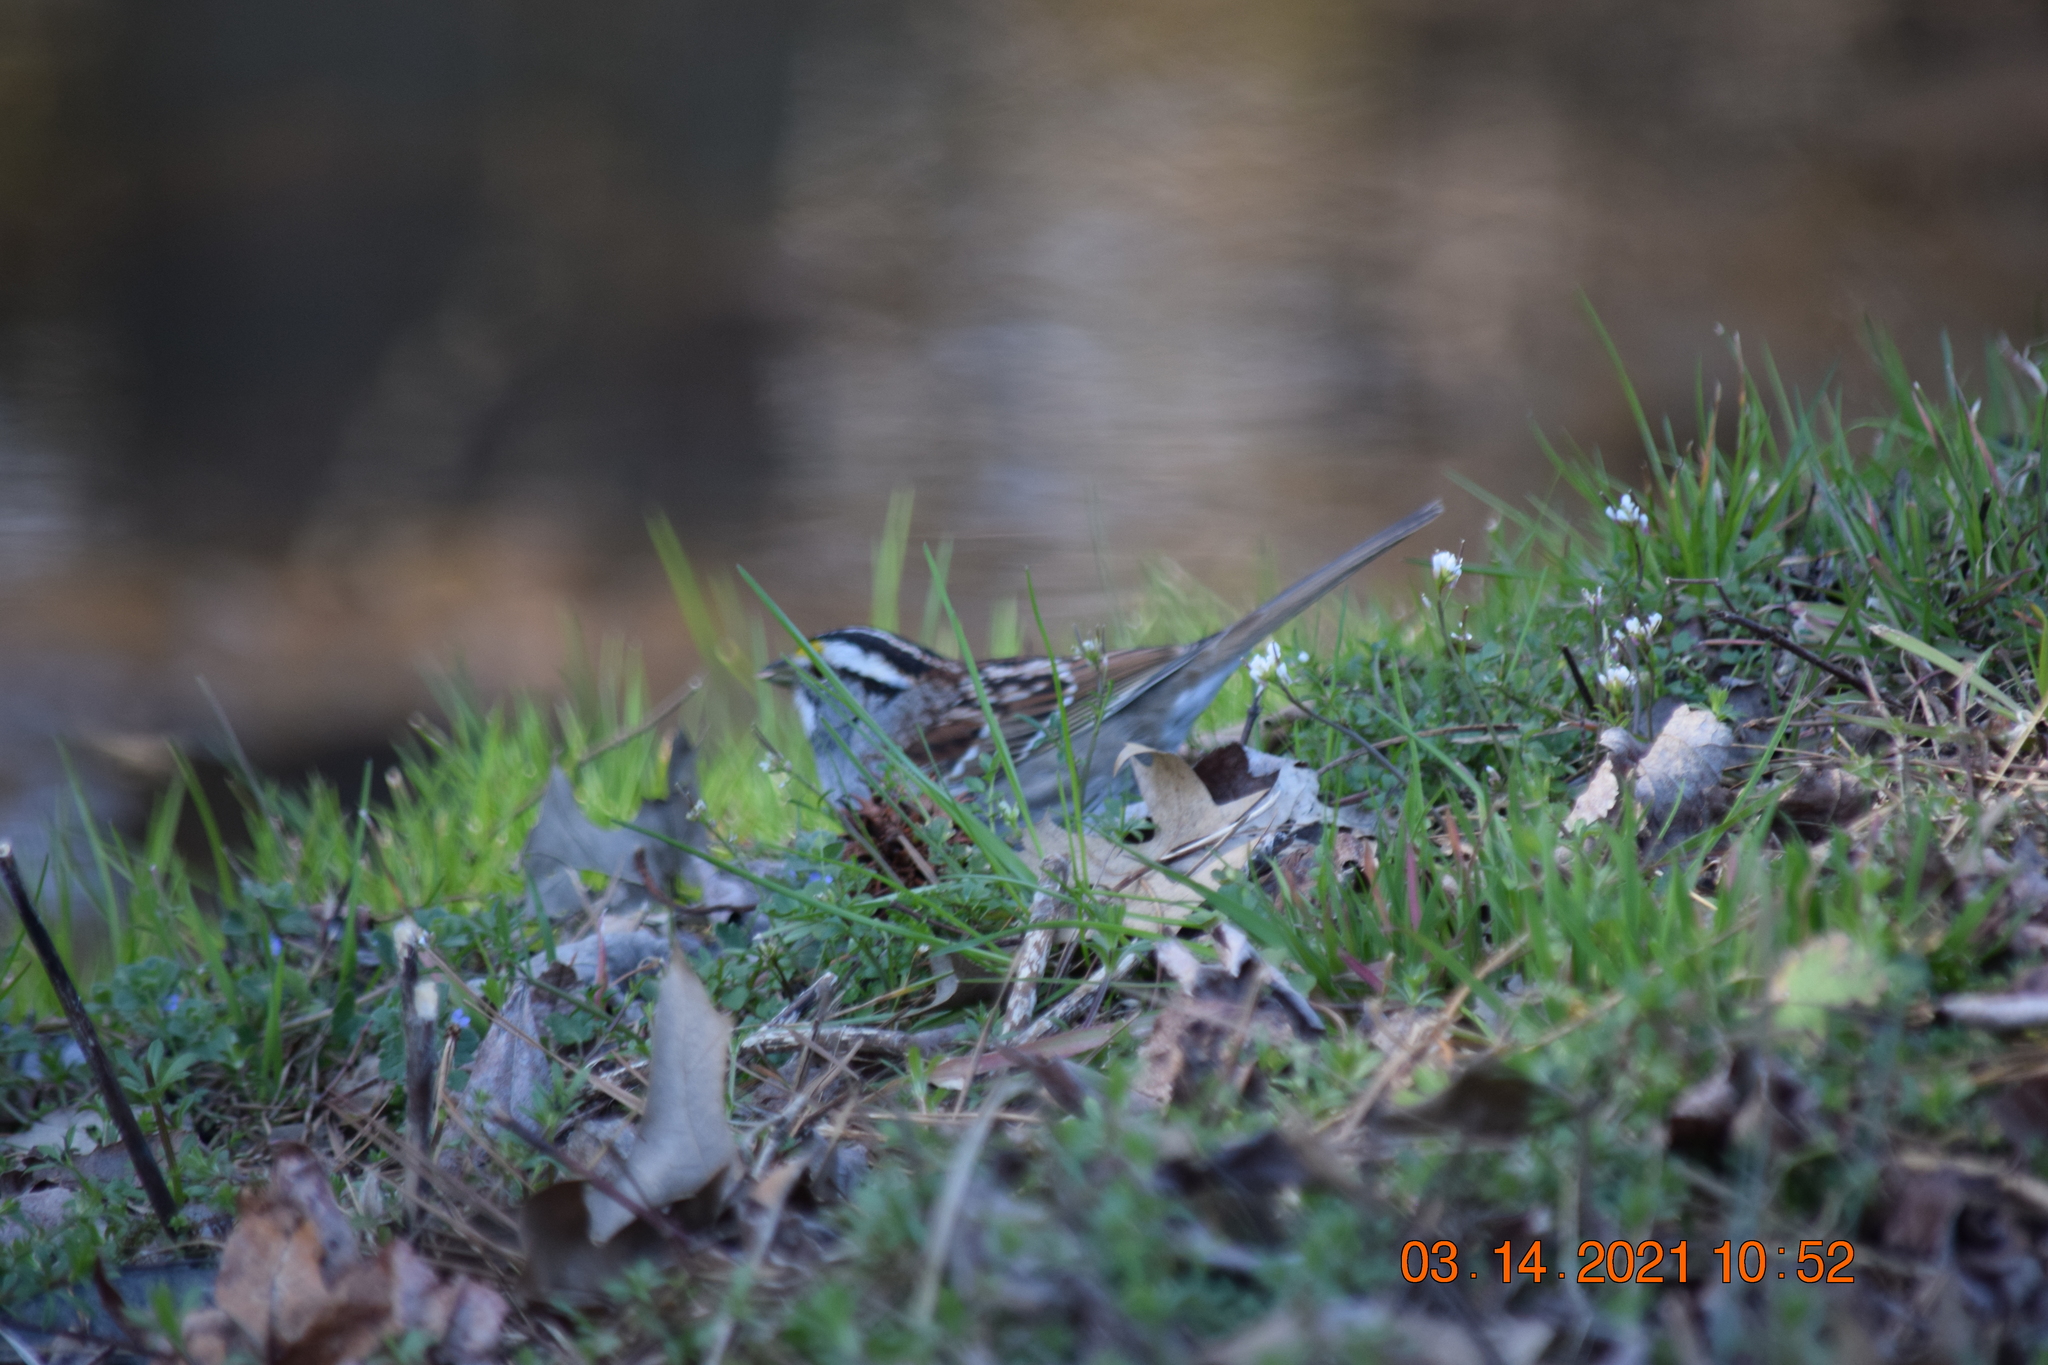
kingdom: Animalia
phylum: Chordata
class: Aves
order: Passeriformes
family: Passerellidae
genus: Zonotrichia
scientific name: Zonotrichia albicollis
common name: White-throated sparrow
